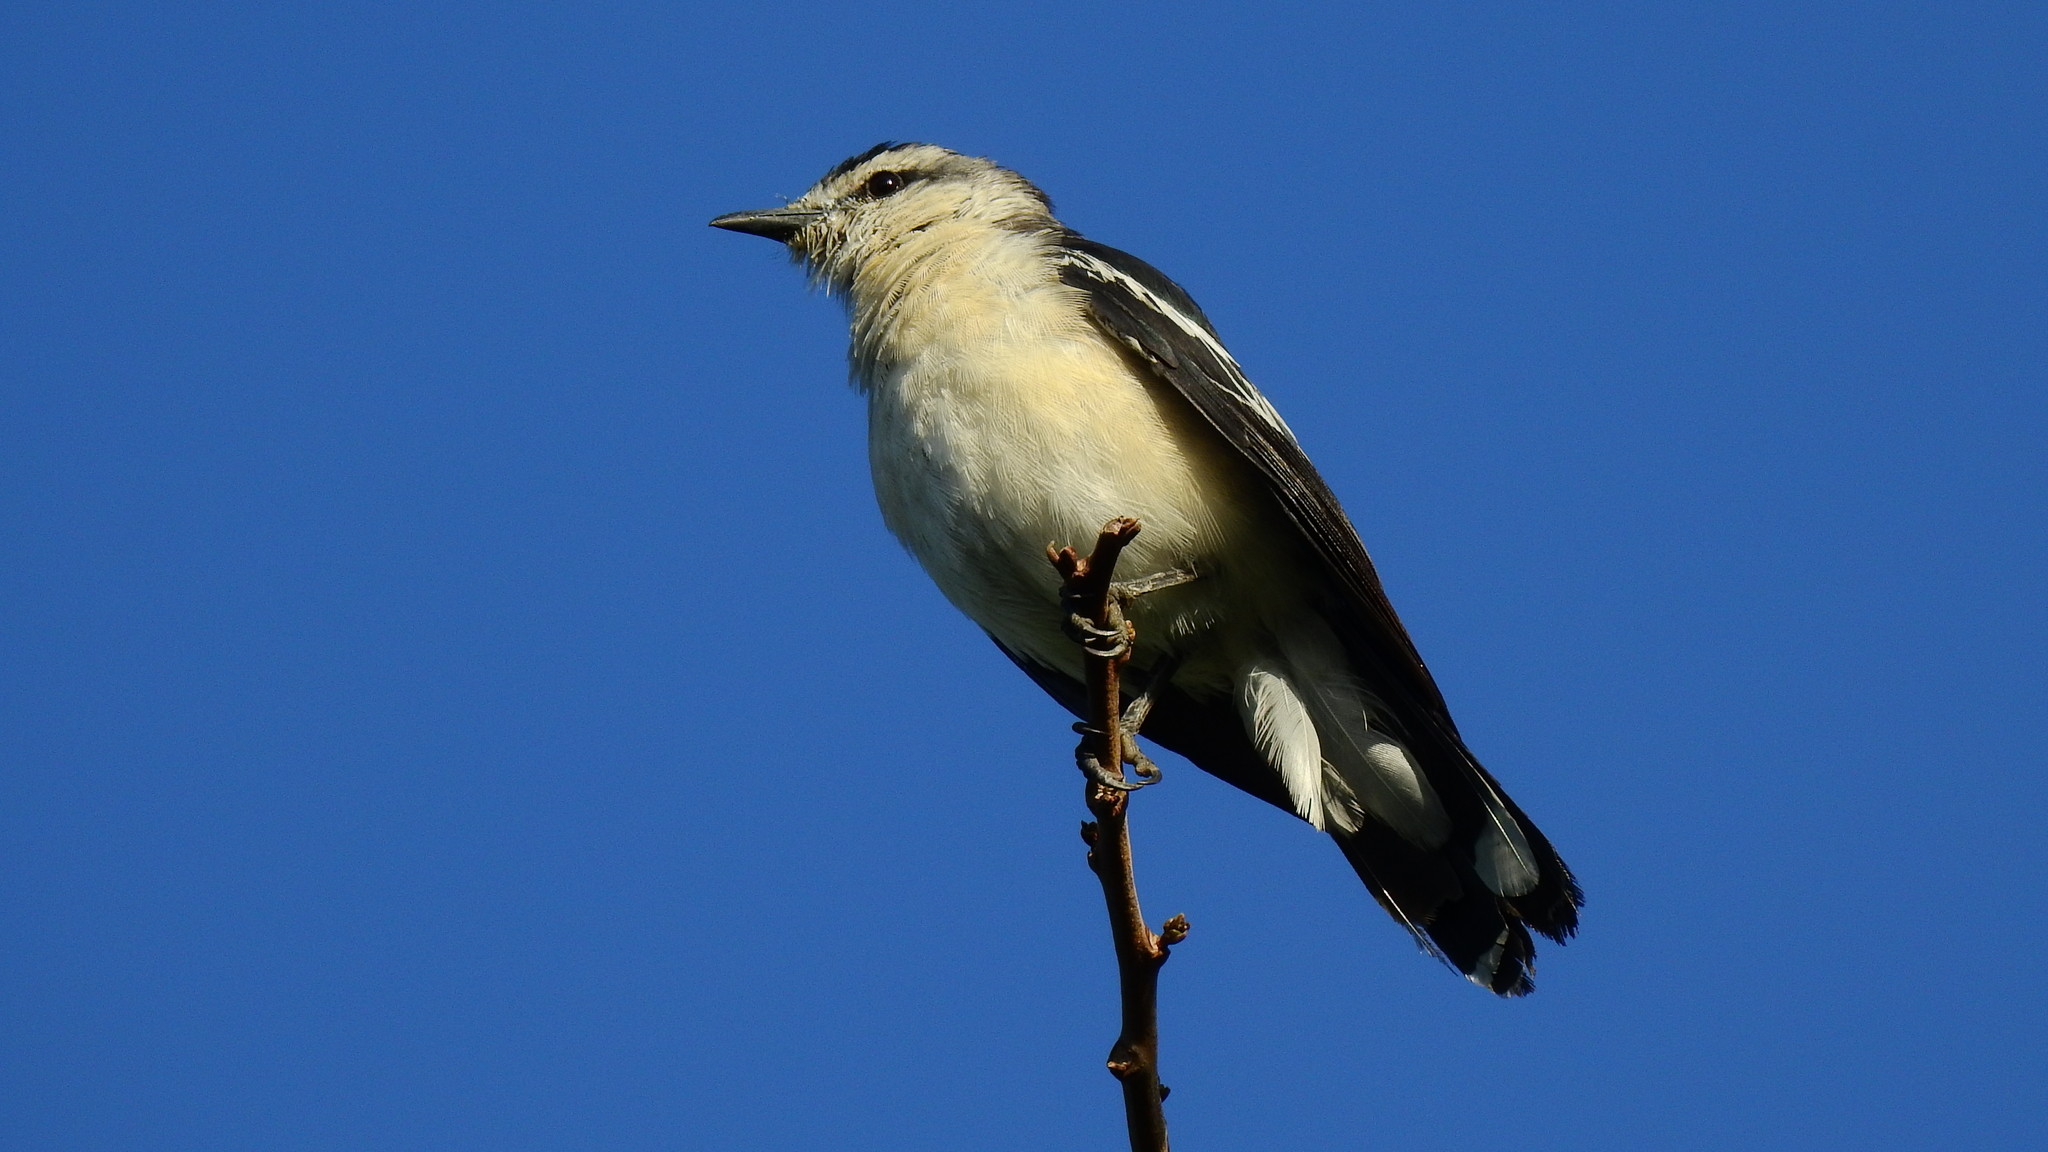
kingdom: Animalia
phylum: Chordata
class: Aves
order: Passeriformes
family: Campephagidae
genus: Lalage
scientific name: Lalage sueurii
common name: White-shouldered triller
